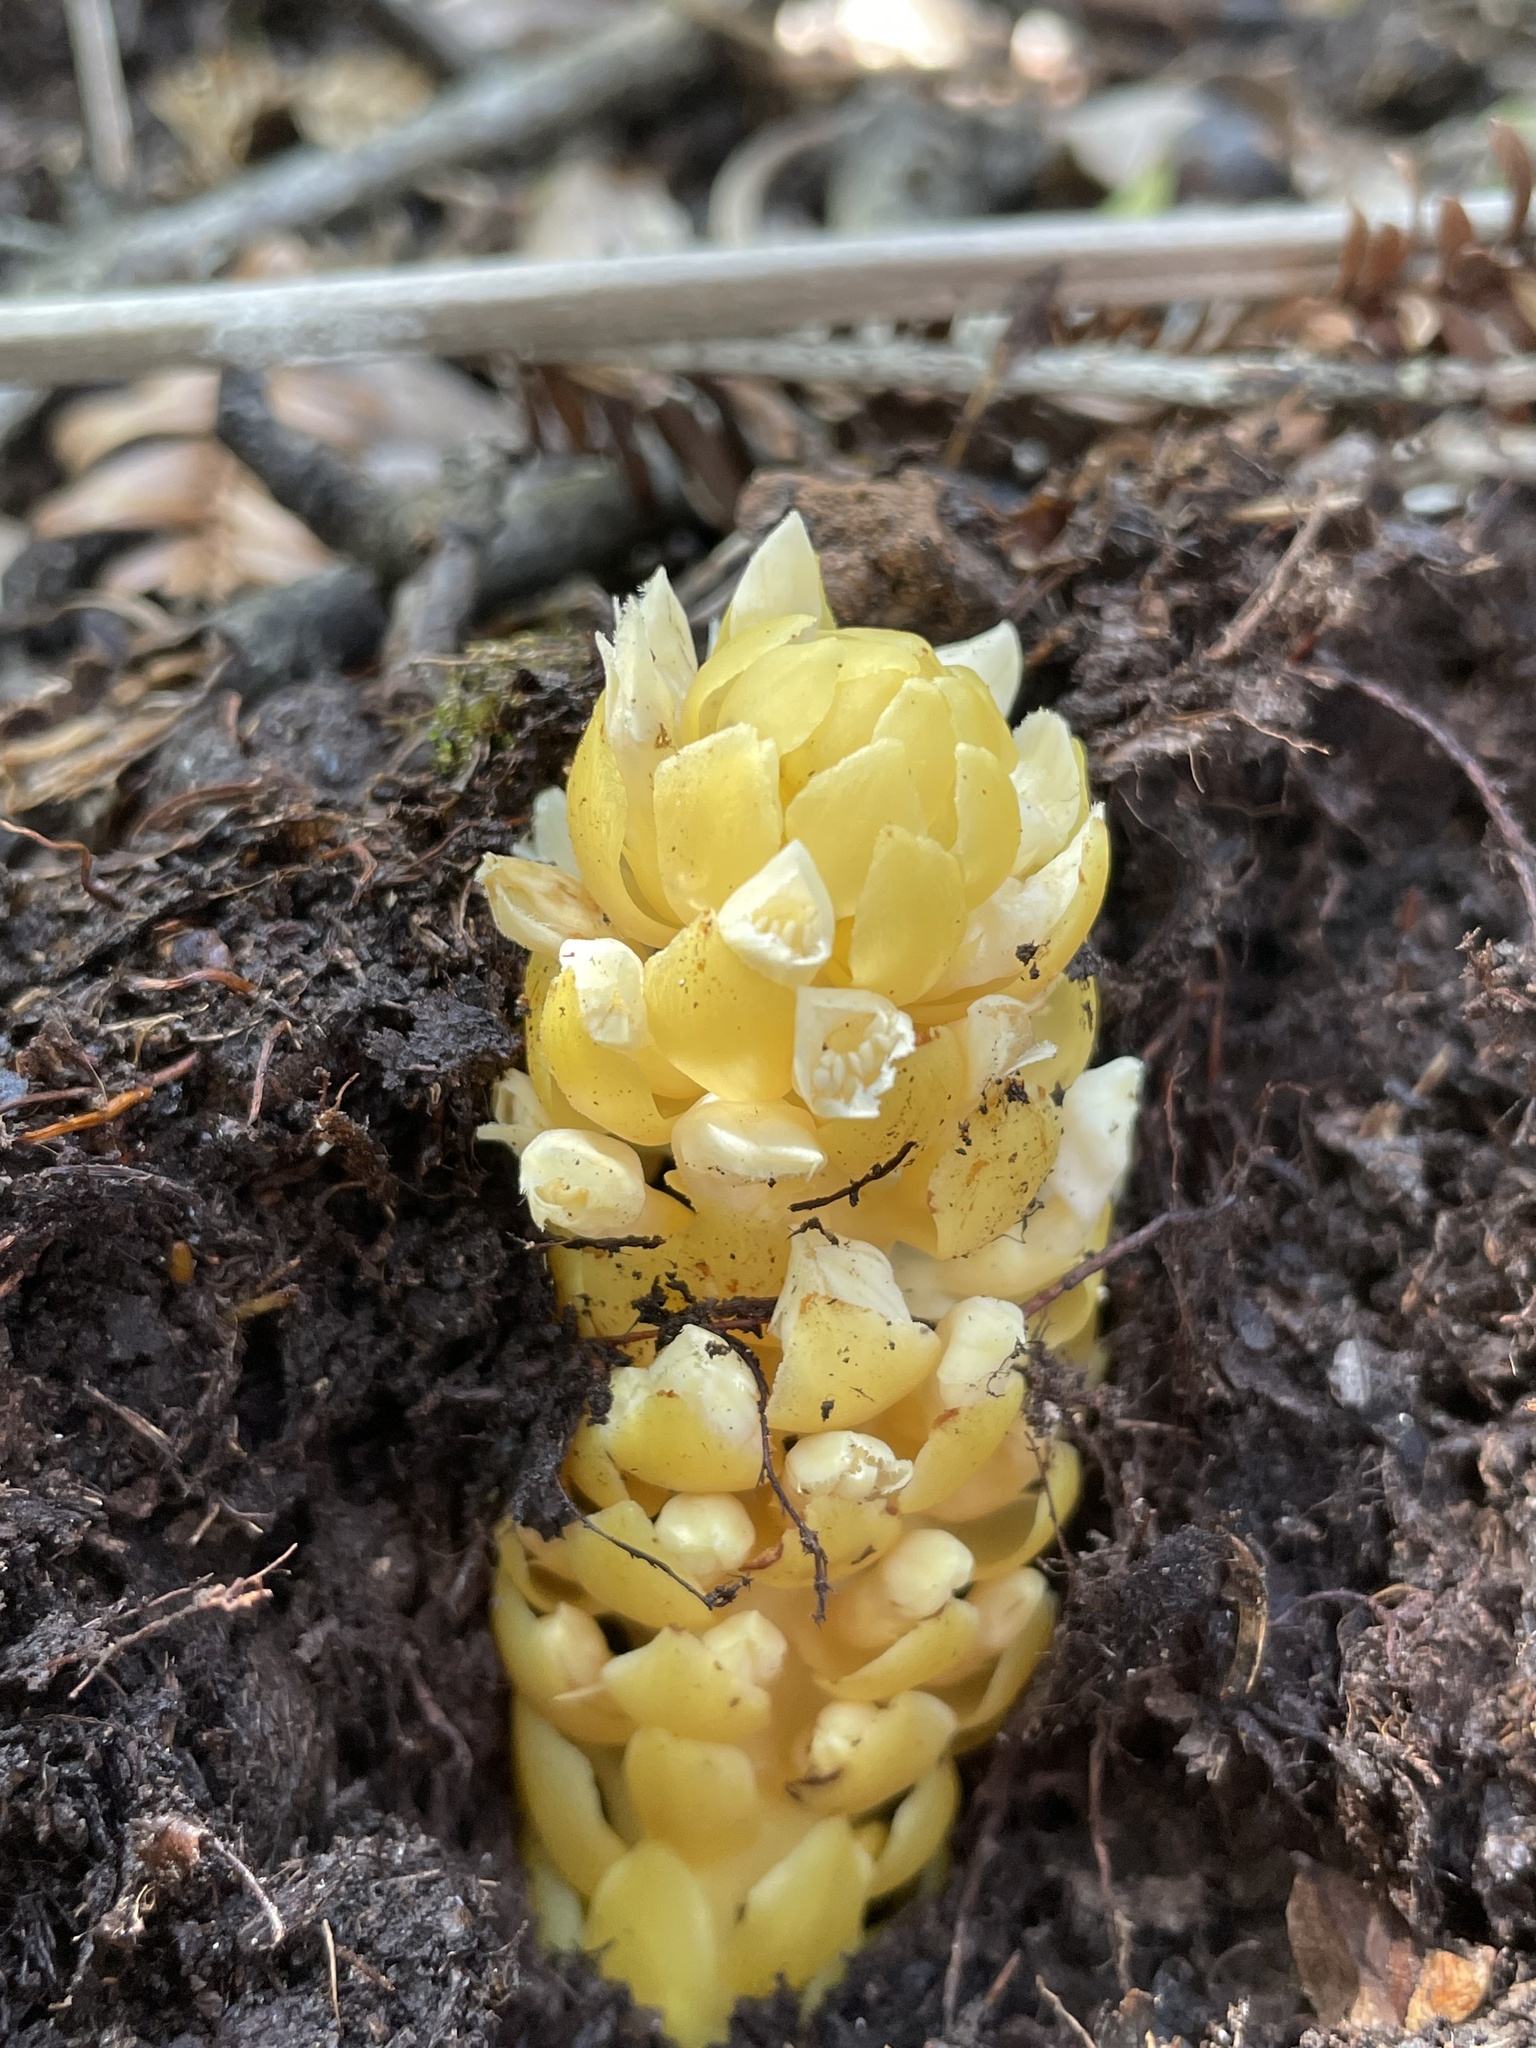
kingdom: Plantae
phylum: Tracheophyta
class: Magnoliopsida
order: Lamiales
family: Orobanchaceae
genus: Kopsiopsis
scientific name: Kopsiopsis hookeri
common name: Hooker's groundcone
